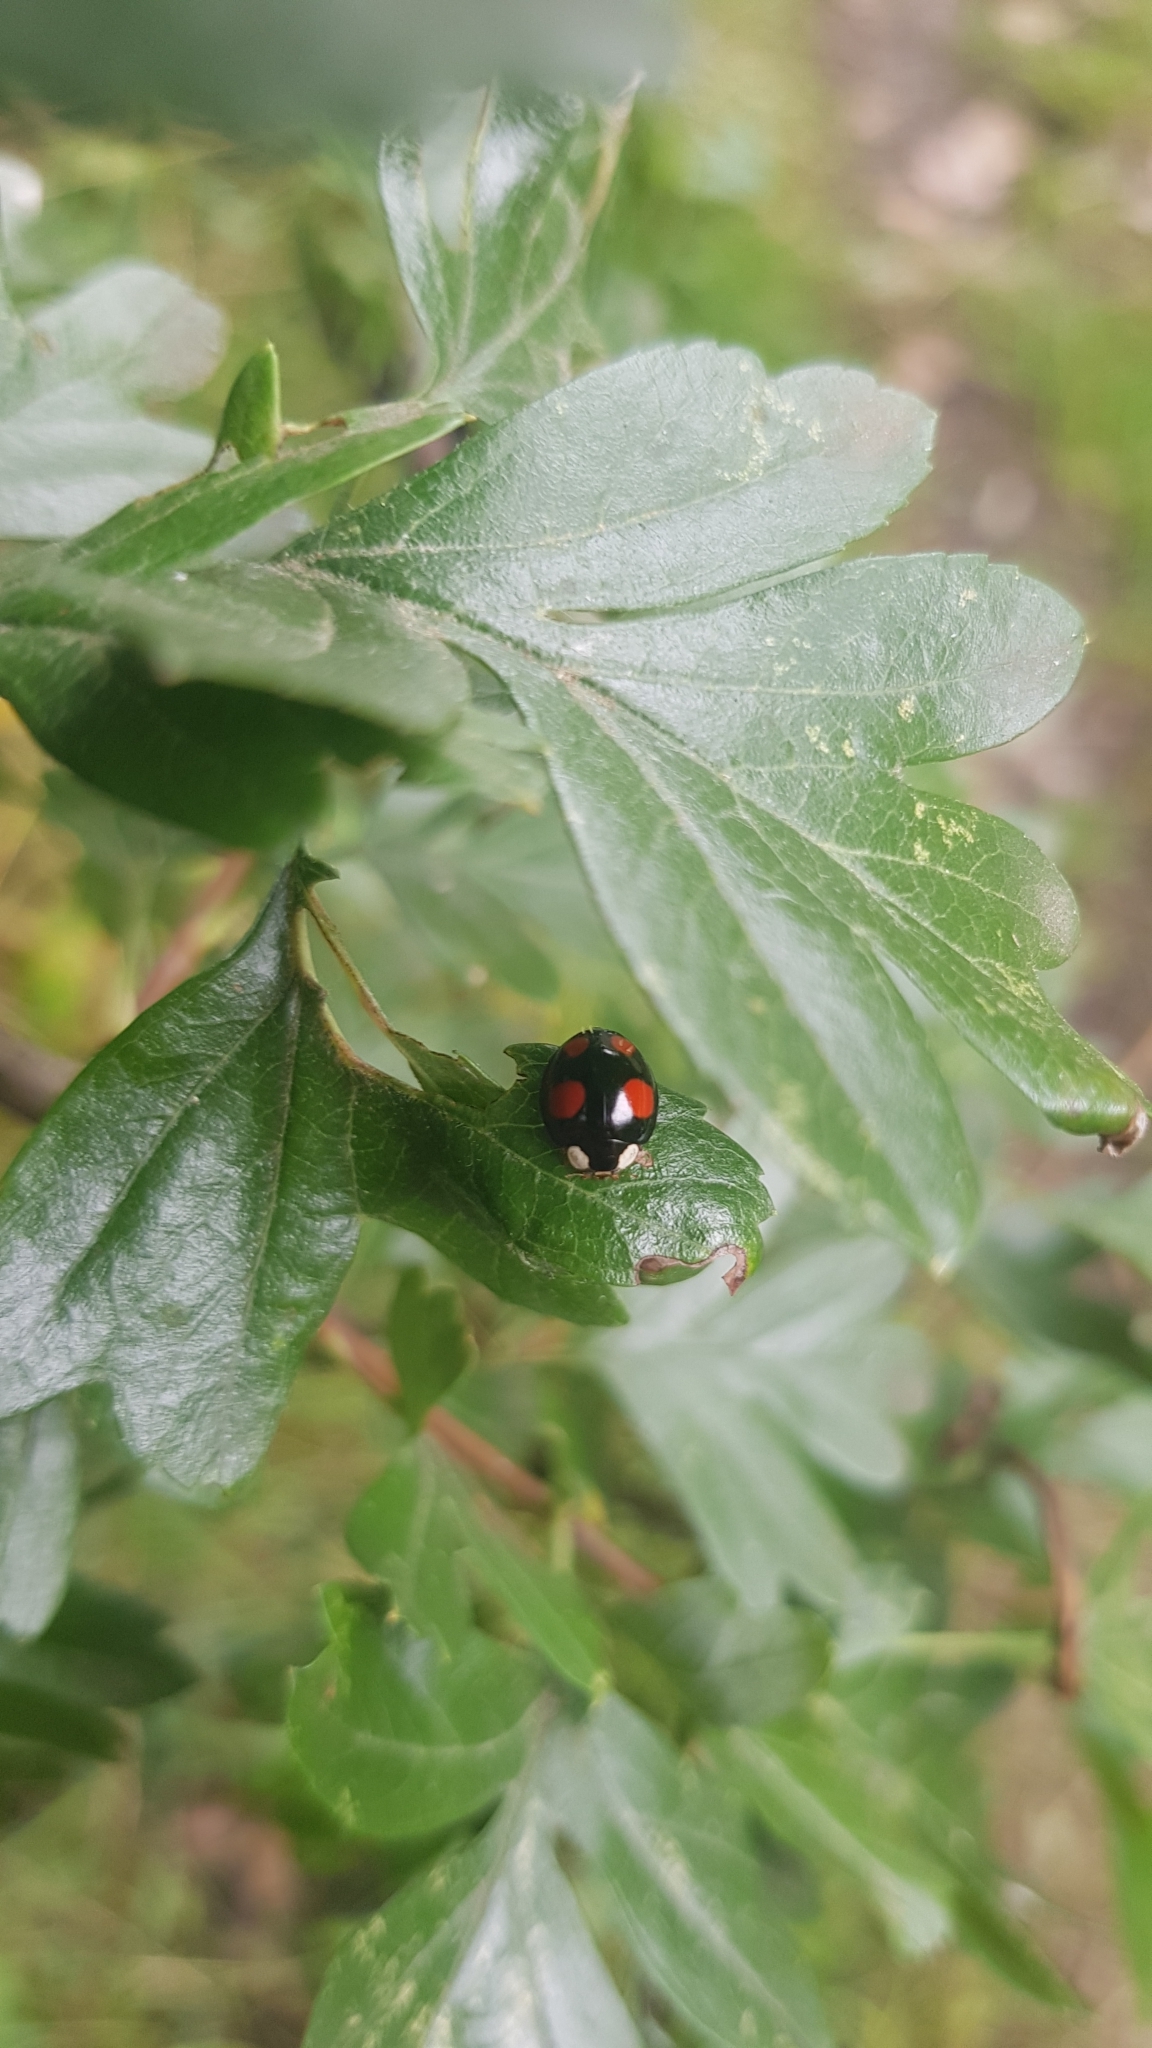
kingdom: Animalia
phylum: Arthropoda
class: Insecta
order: Coleoptera
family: Coccinellidae
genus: Harmonia
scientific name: Harmonia axyridis
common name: Harlequin ladybird
